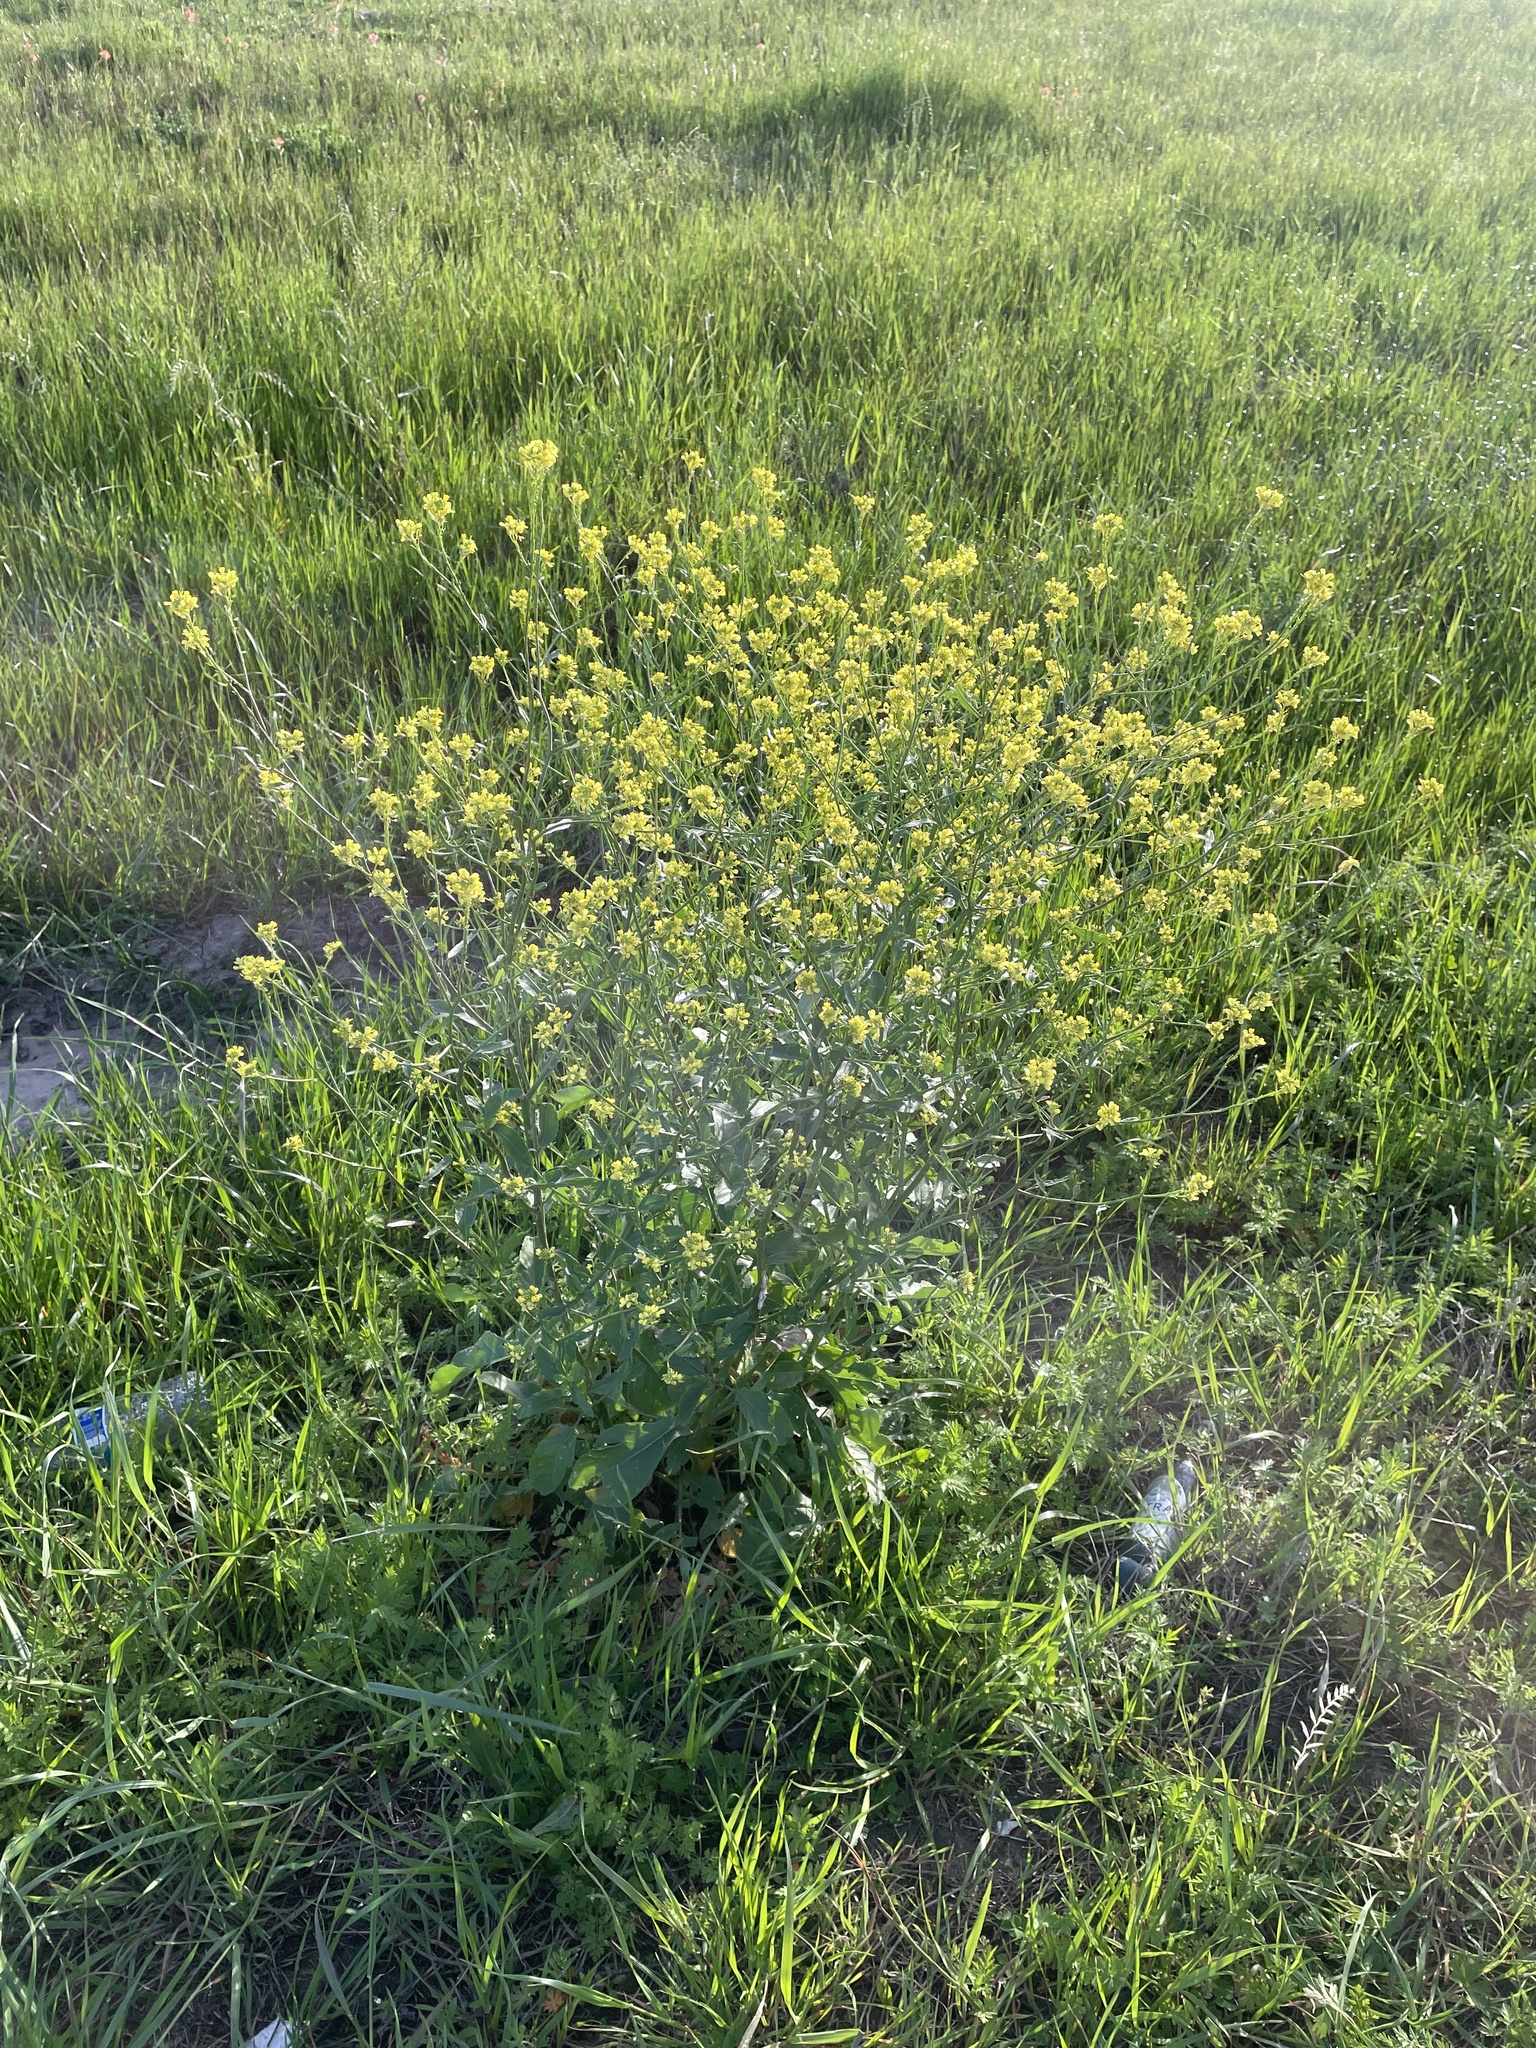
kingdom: Plantae
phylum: Tracheophyta
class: Magnoliopsida
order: Brassicales
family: Brassicaceae
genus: Rapistrum
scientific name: Rapistrum rugosum
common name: Annual bastardcabbage
